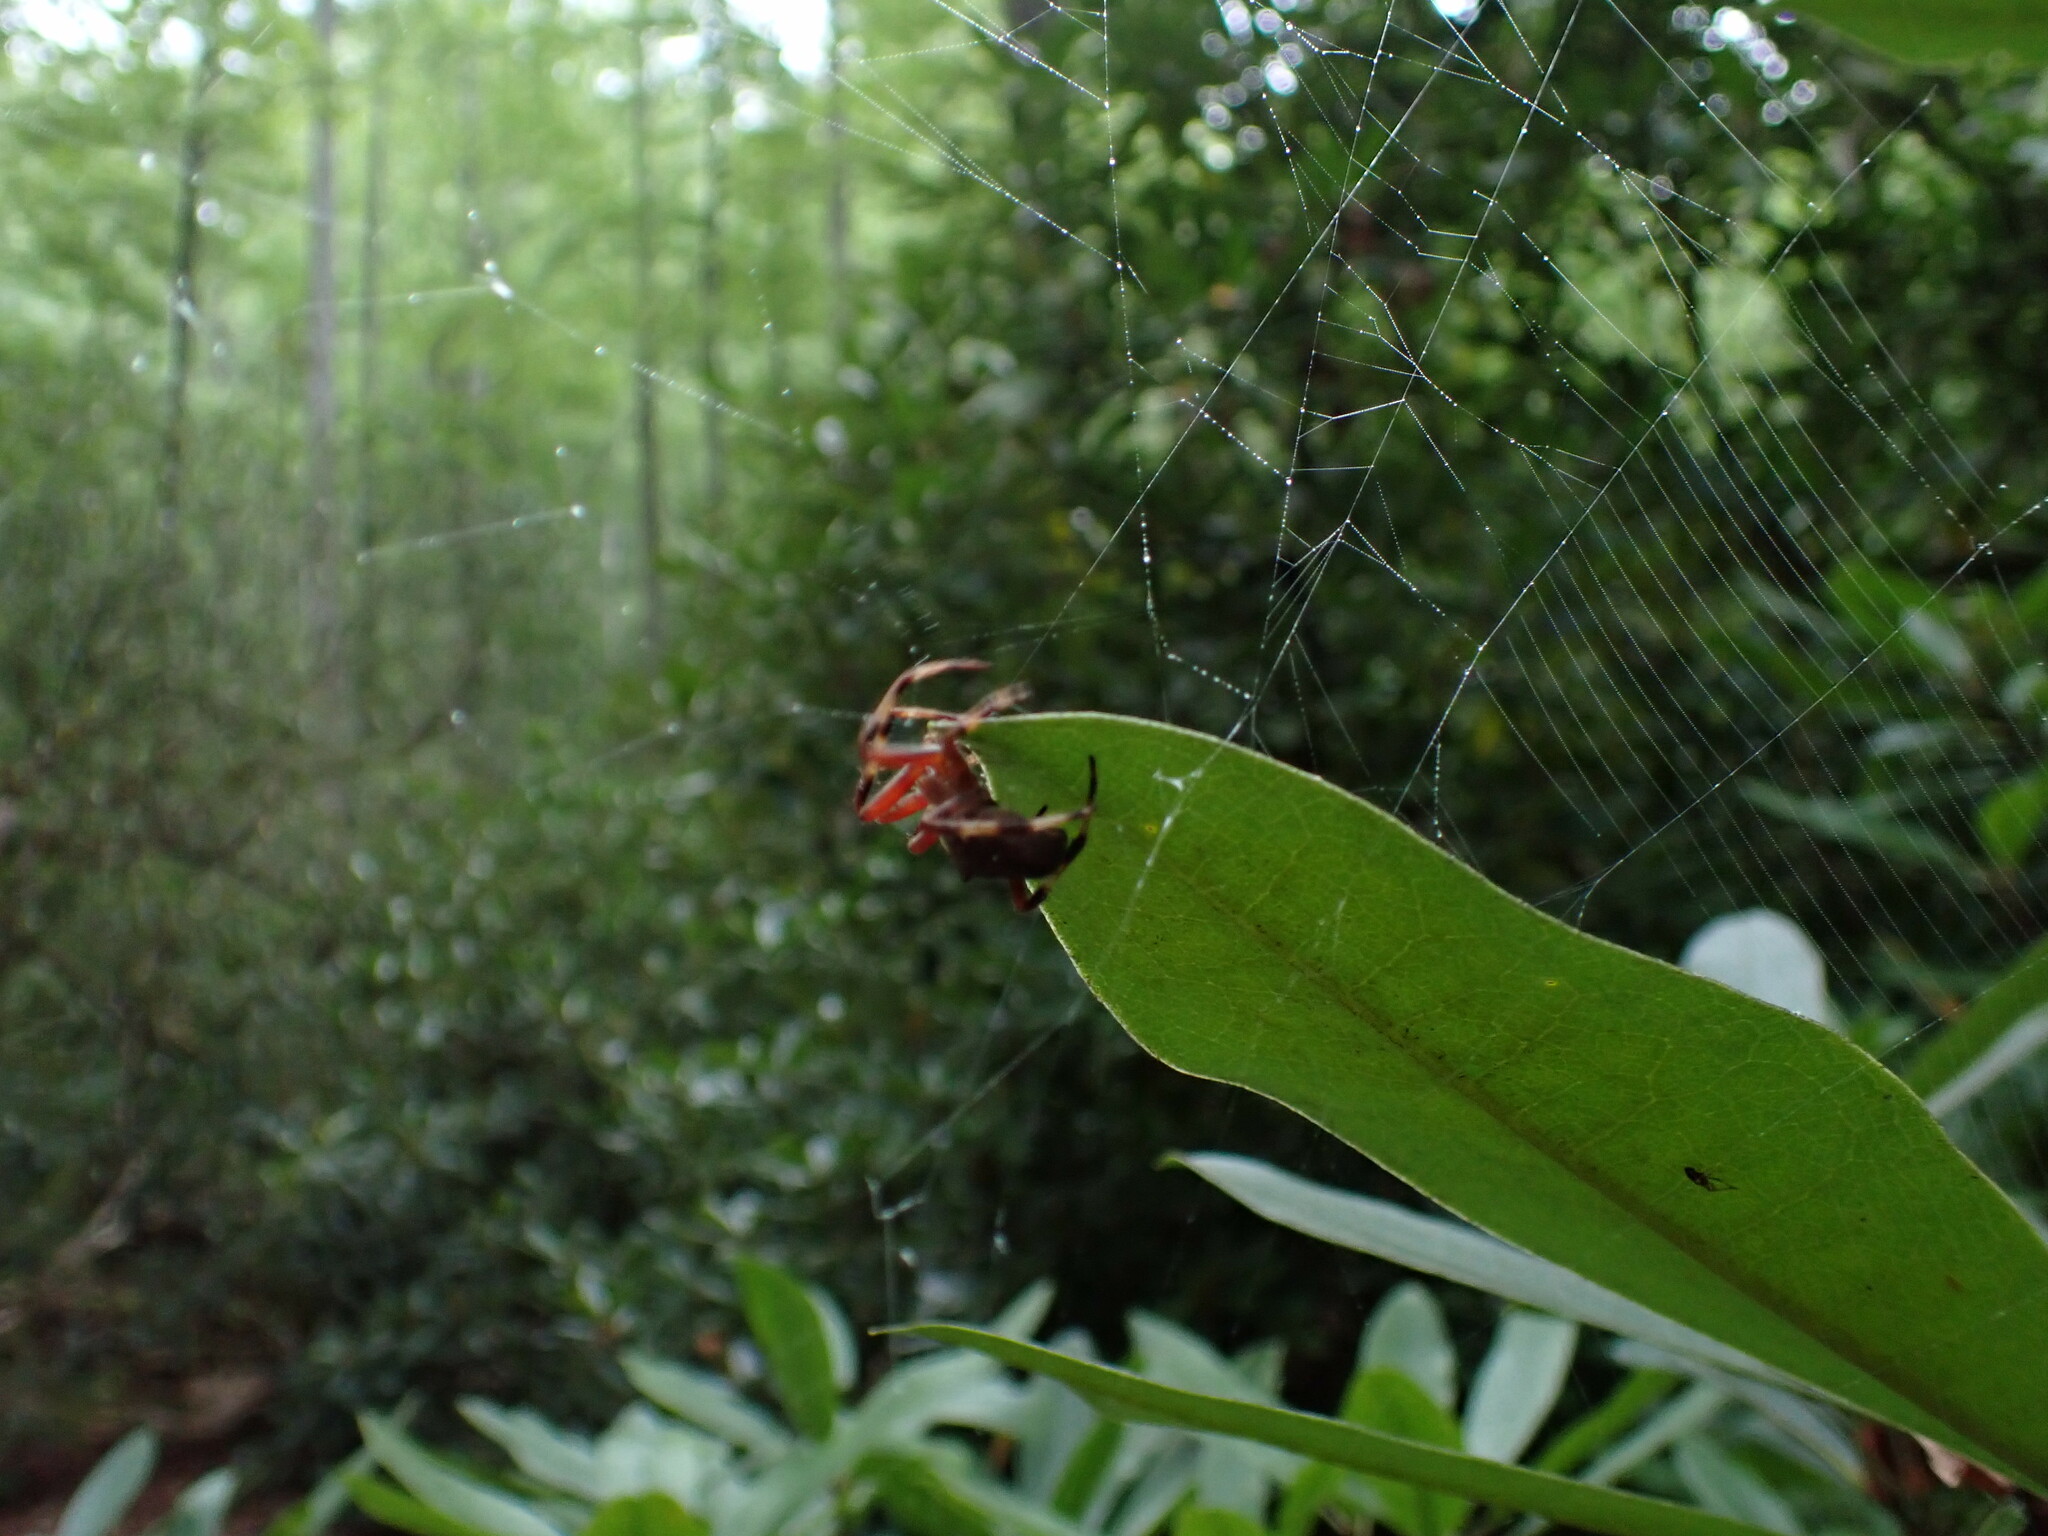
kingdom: Animalia
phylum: Arthropoda
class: Arachnida
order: Araneae
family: Araneidae
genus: Neoscona
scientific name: Neoscona crucifera
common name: Spotted orbweaver
